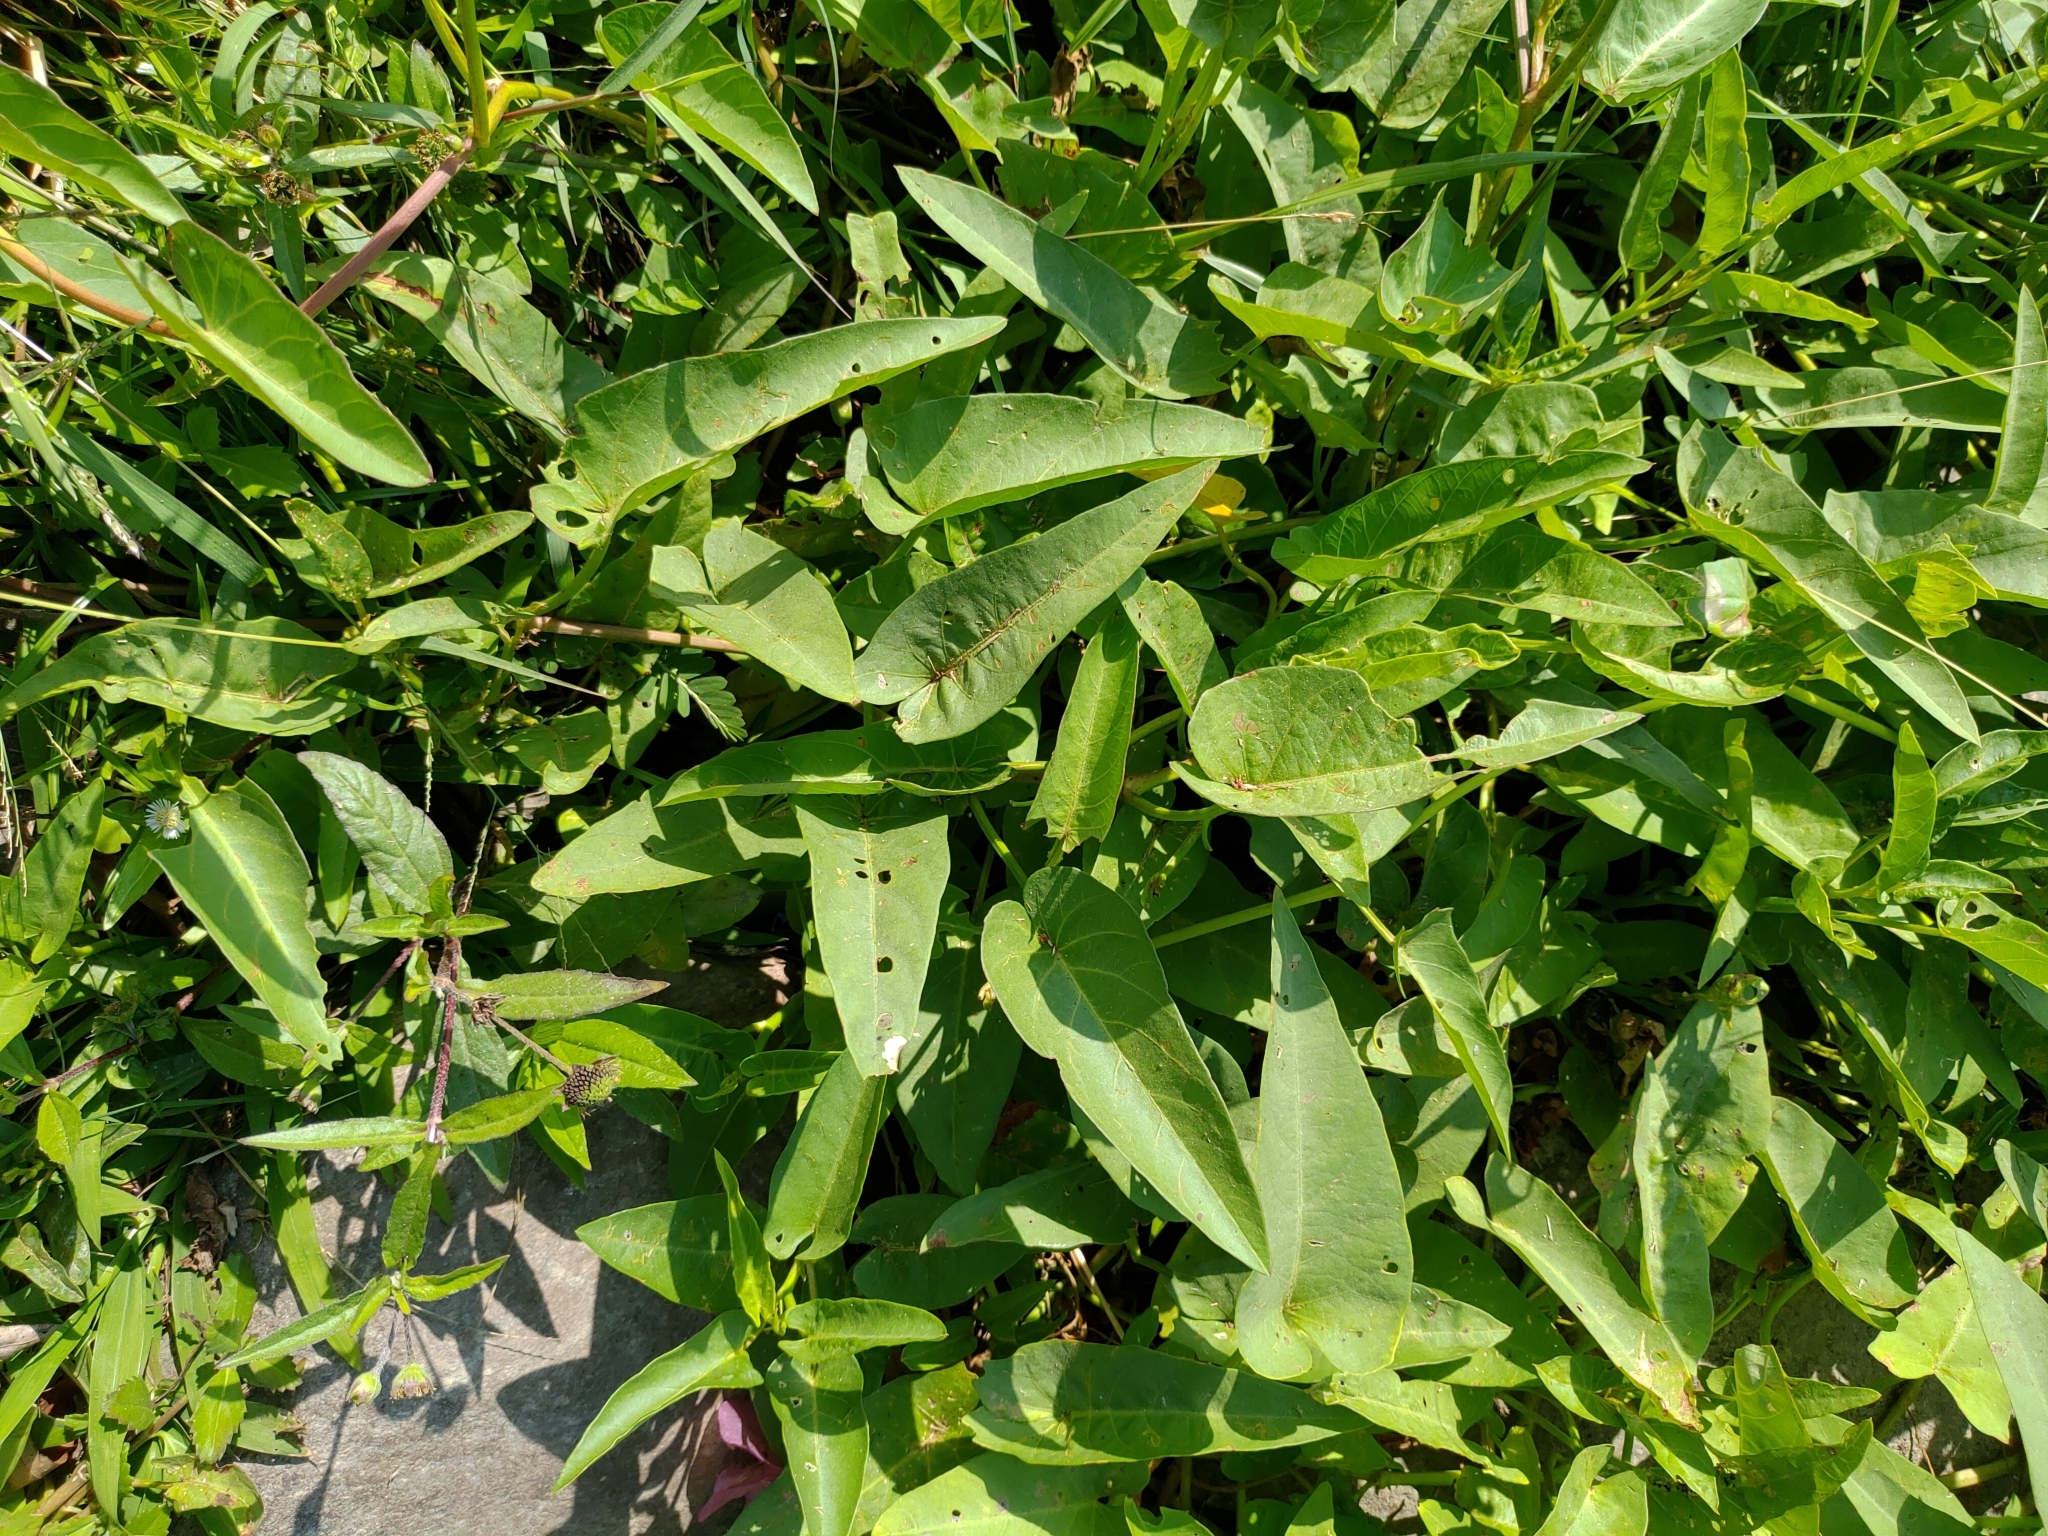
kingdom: Plantae
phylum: Tracheophyta
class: Magnoliopsida
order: Solanales
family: Convolvulaceae
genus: Ipomoea
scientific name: Ipomoea aquatica
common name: Swamp morning-glory
